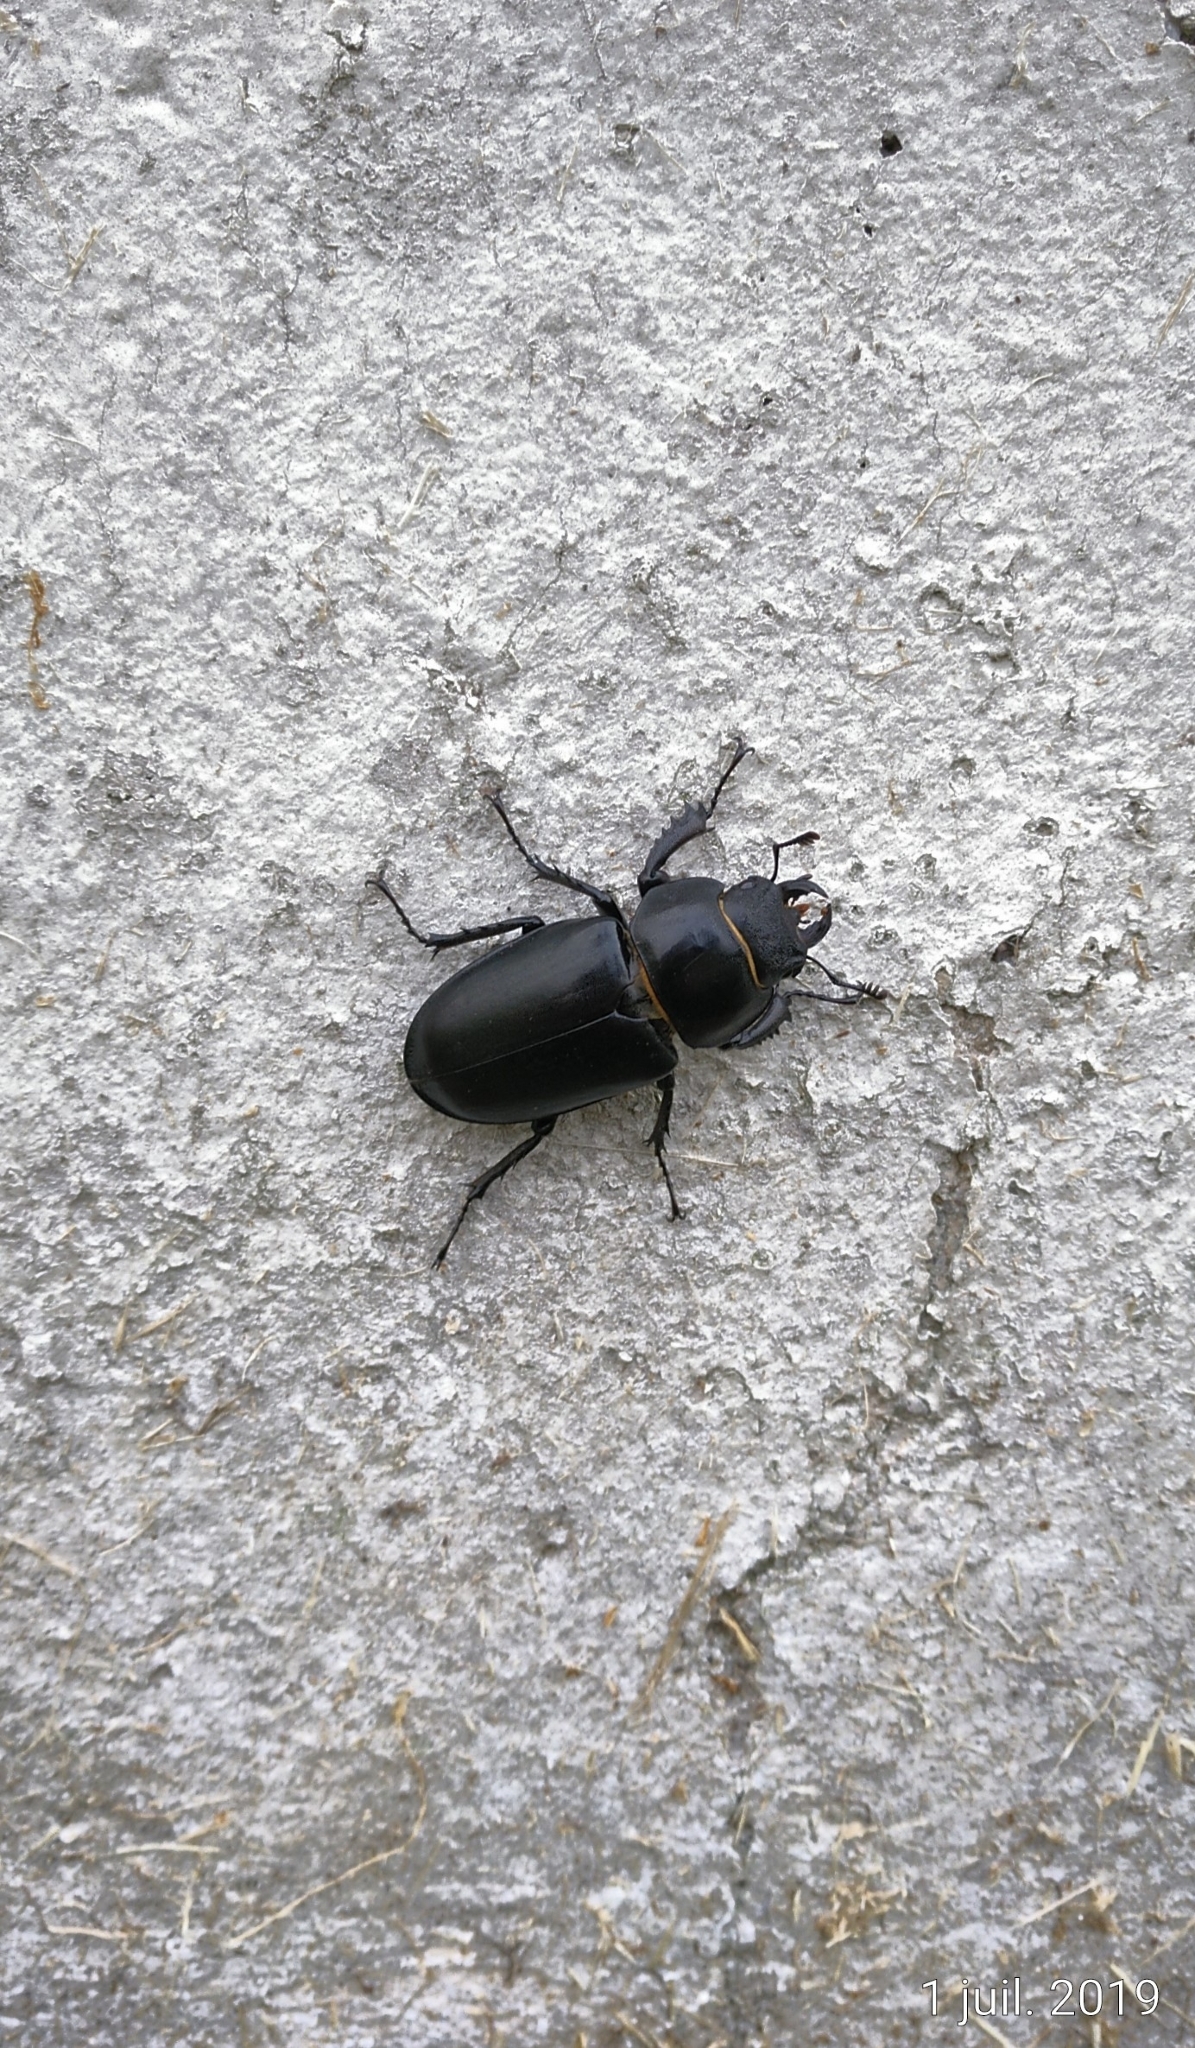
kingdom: Animalia
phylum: Arthropoda
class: Insecta
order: Coleoptera
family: Lucanidae
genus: Lucanus
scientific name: Lucanus cervus
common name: Stag beetle
